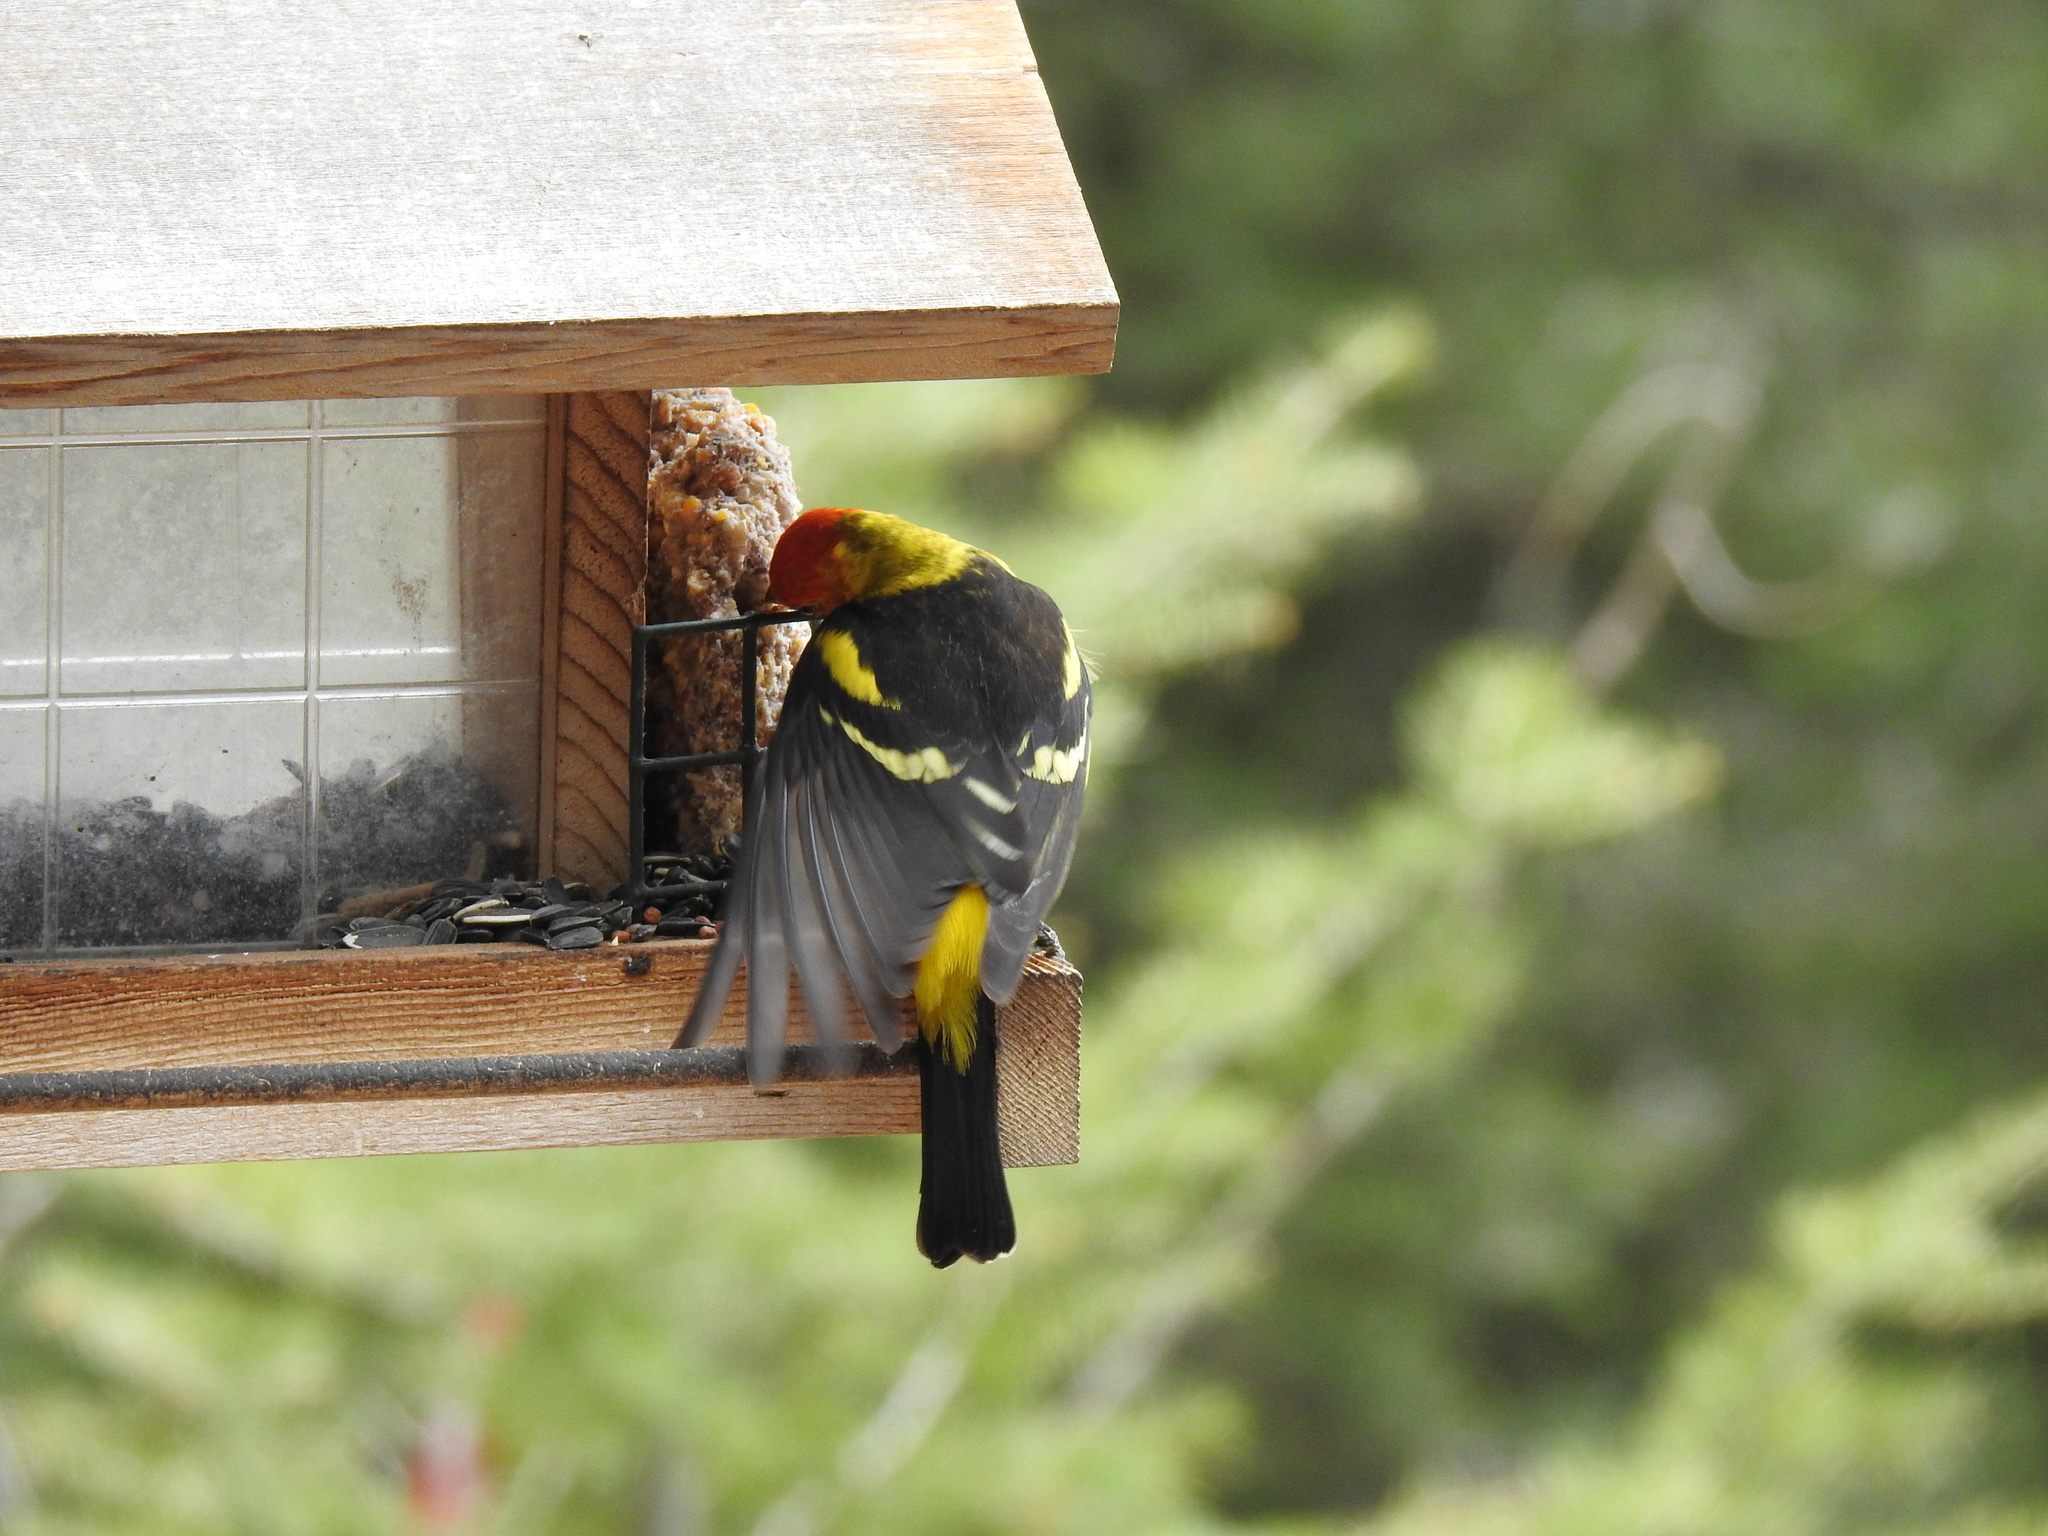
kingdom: Animalia
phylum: Chordata
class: Aves
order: Passeriformes
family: Cardinalidae
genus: Piranga
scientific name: Piranga ludoviciana
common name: Western tanager
